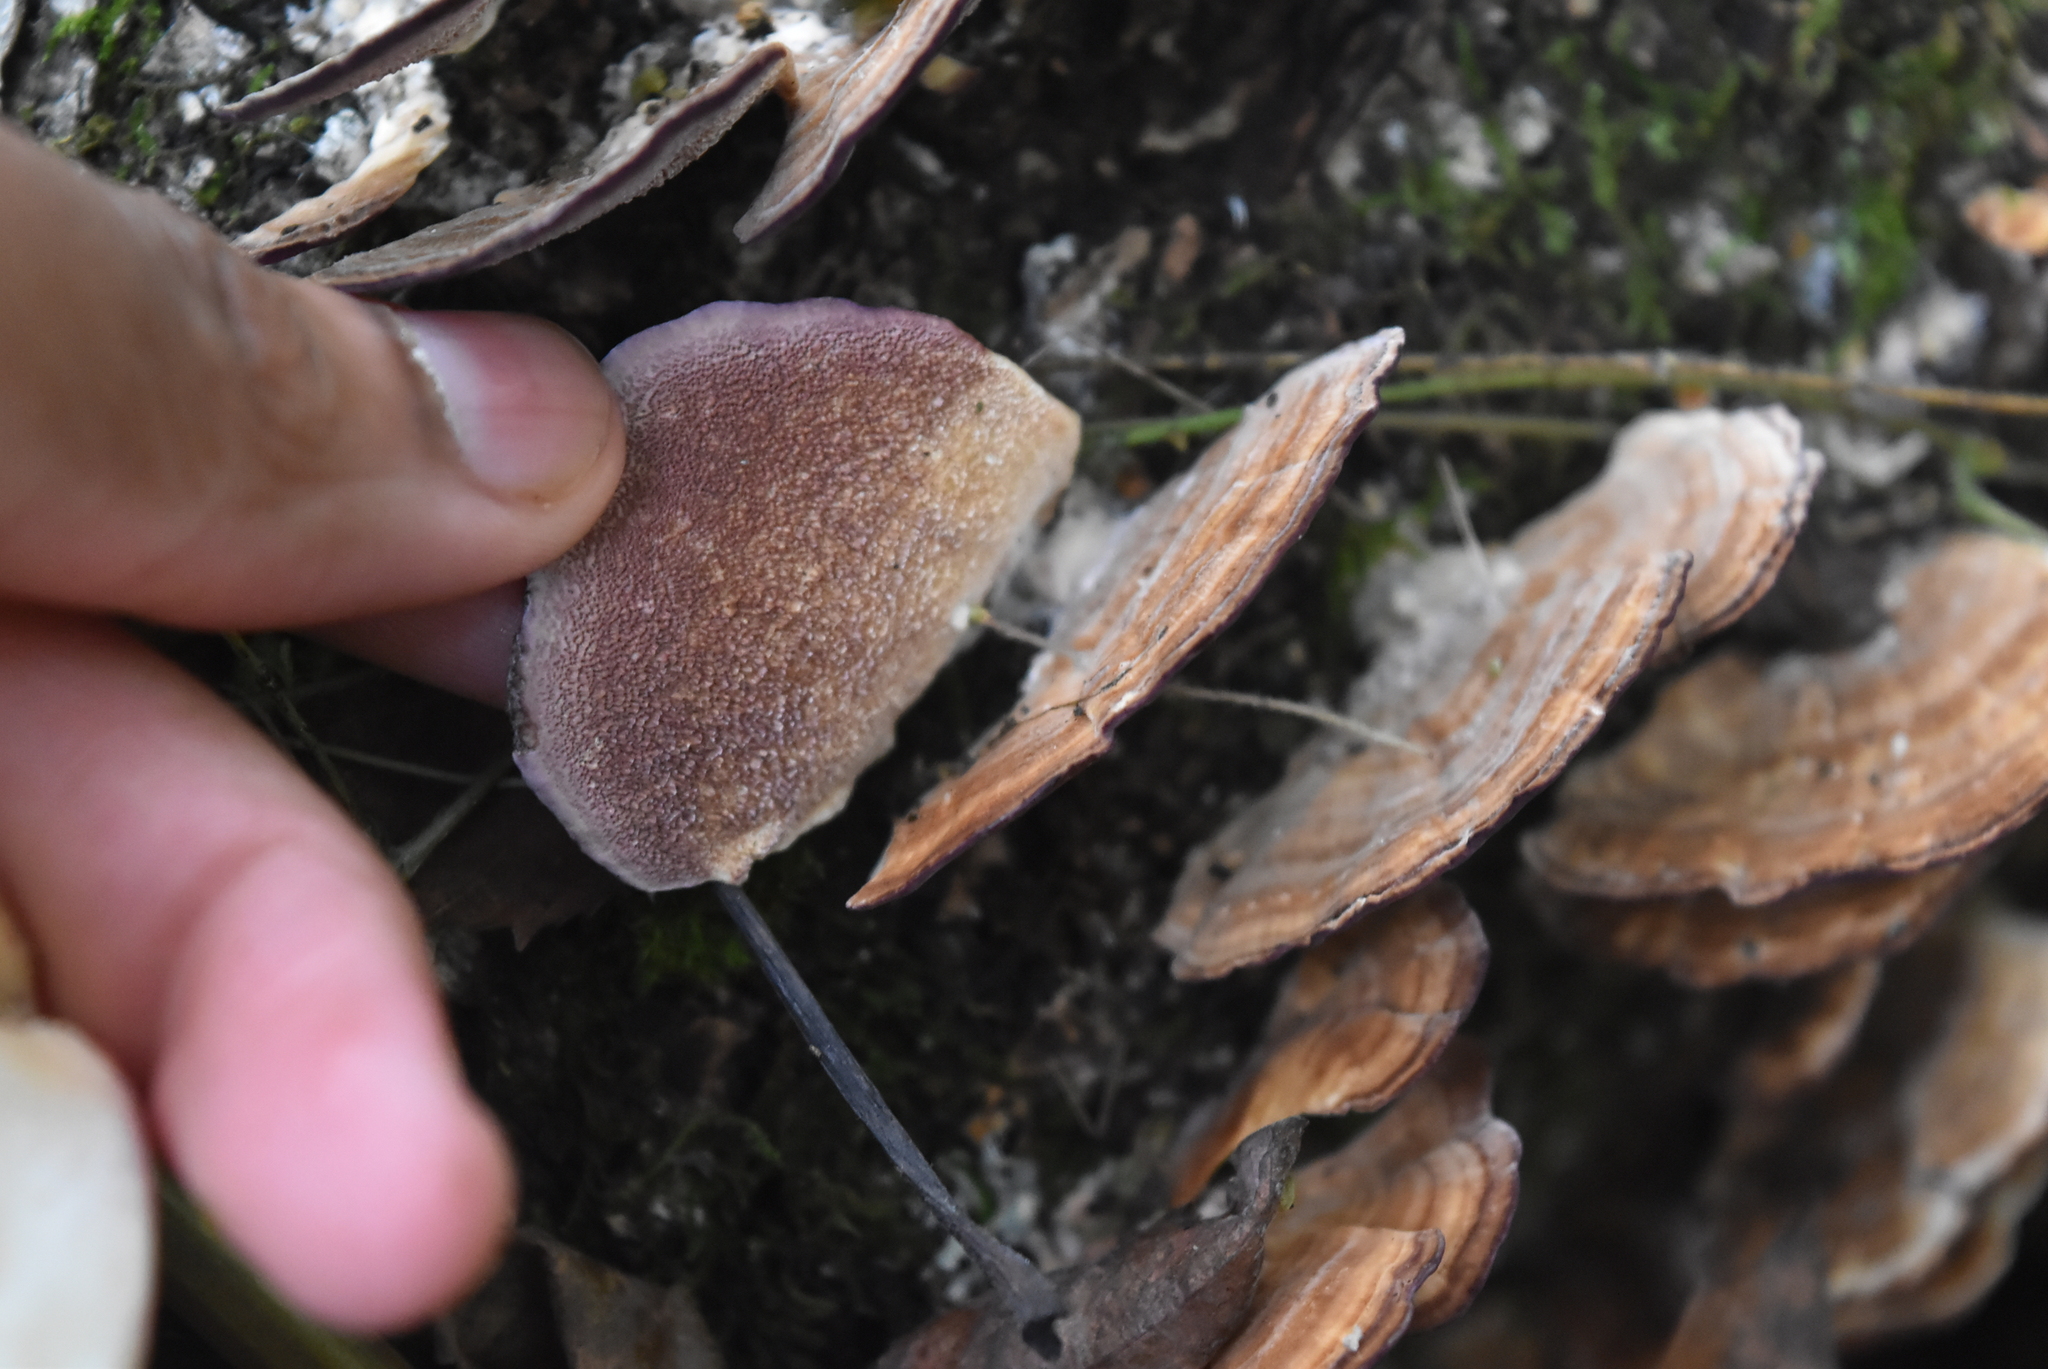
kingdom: Fungi
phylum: Basidiomycota
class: Agaricomycetes
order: Hymenochaetales
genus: Trichaptum
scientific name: Trichaptum biforme
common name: Violet-toothed polypore
